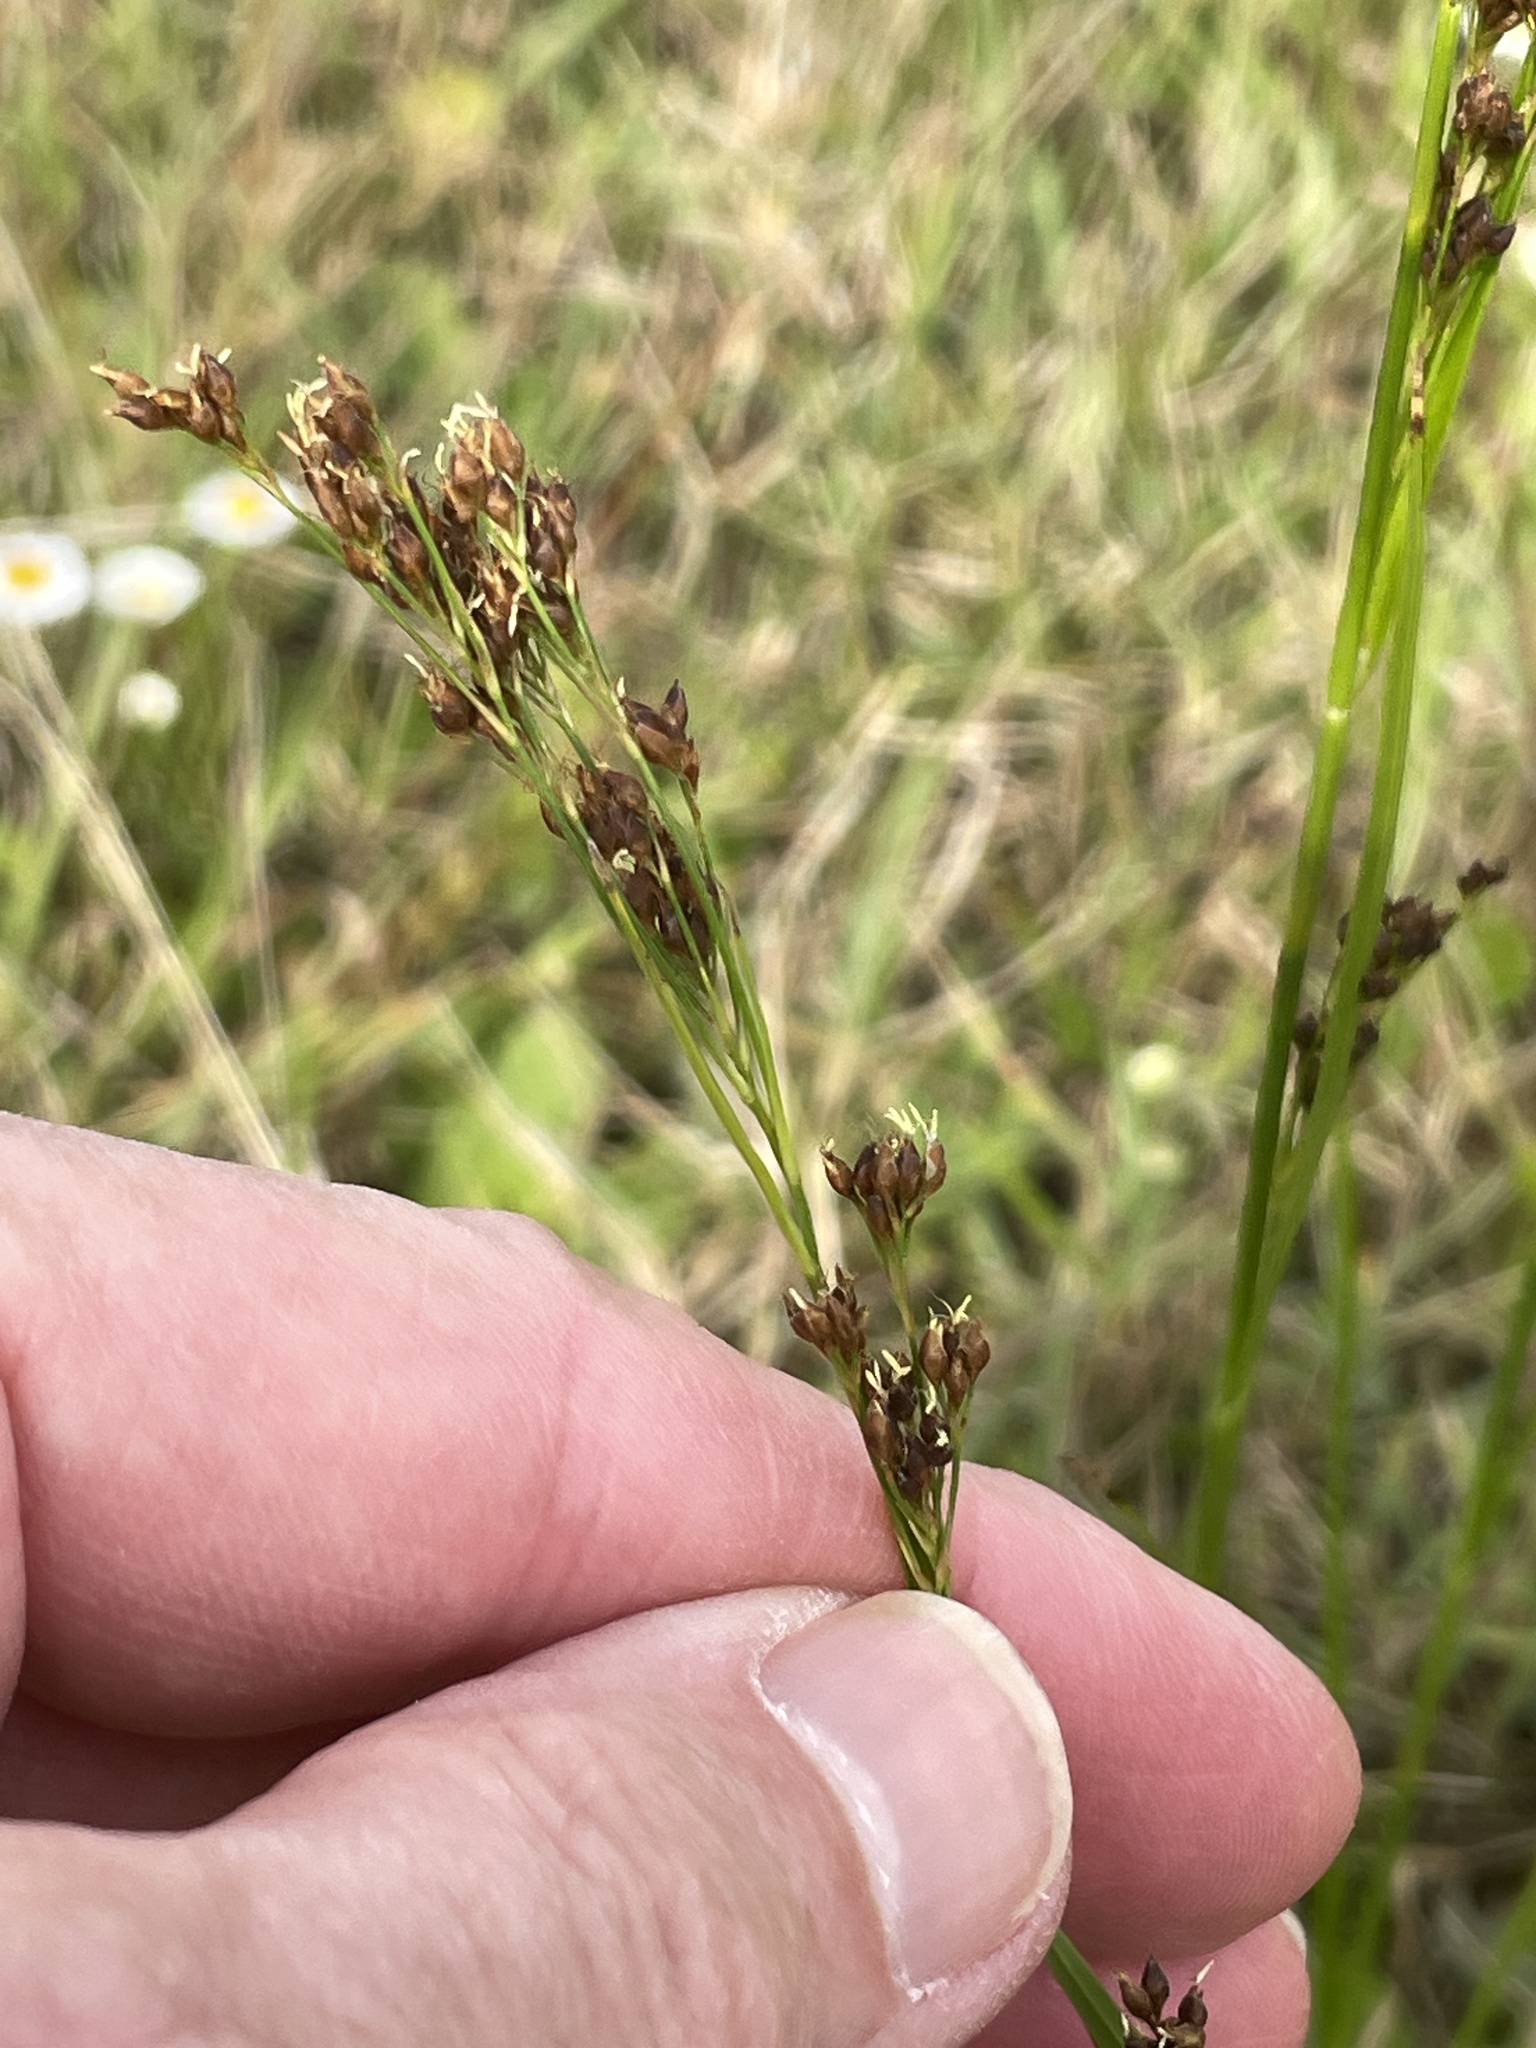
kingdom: Plantae
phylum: Tracheophyta
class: Liliopsida
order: Poales
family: Cyperaceae
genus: Rhynchospora
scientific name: Rhynchospora microcarpa
